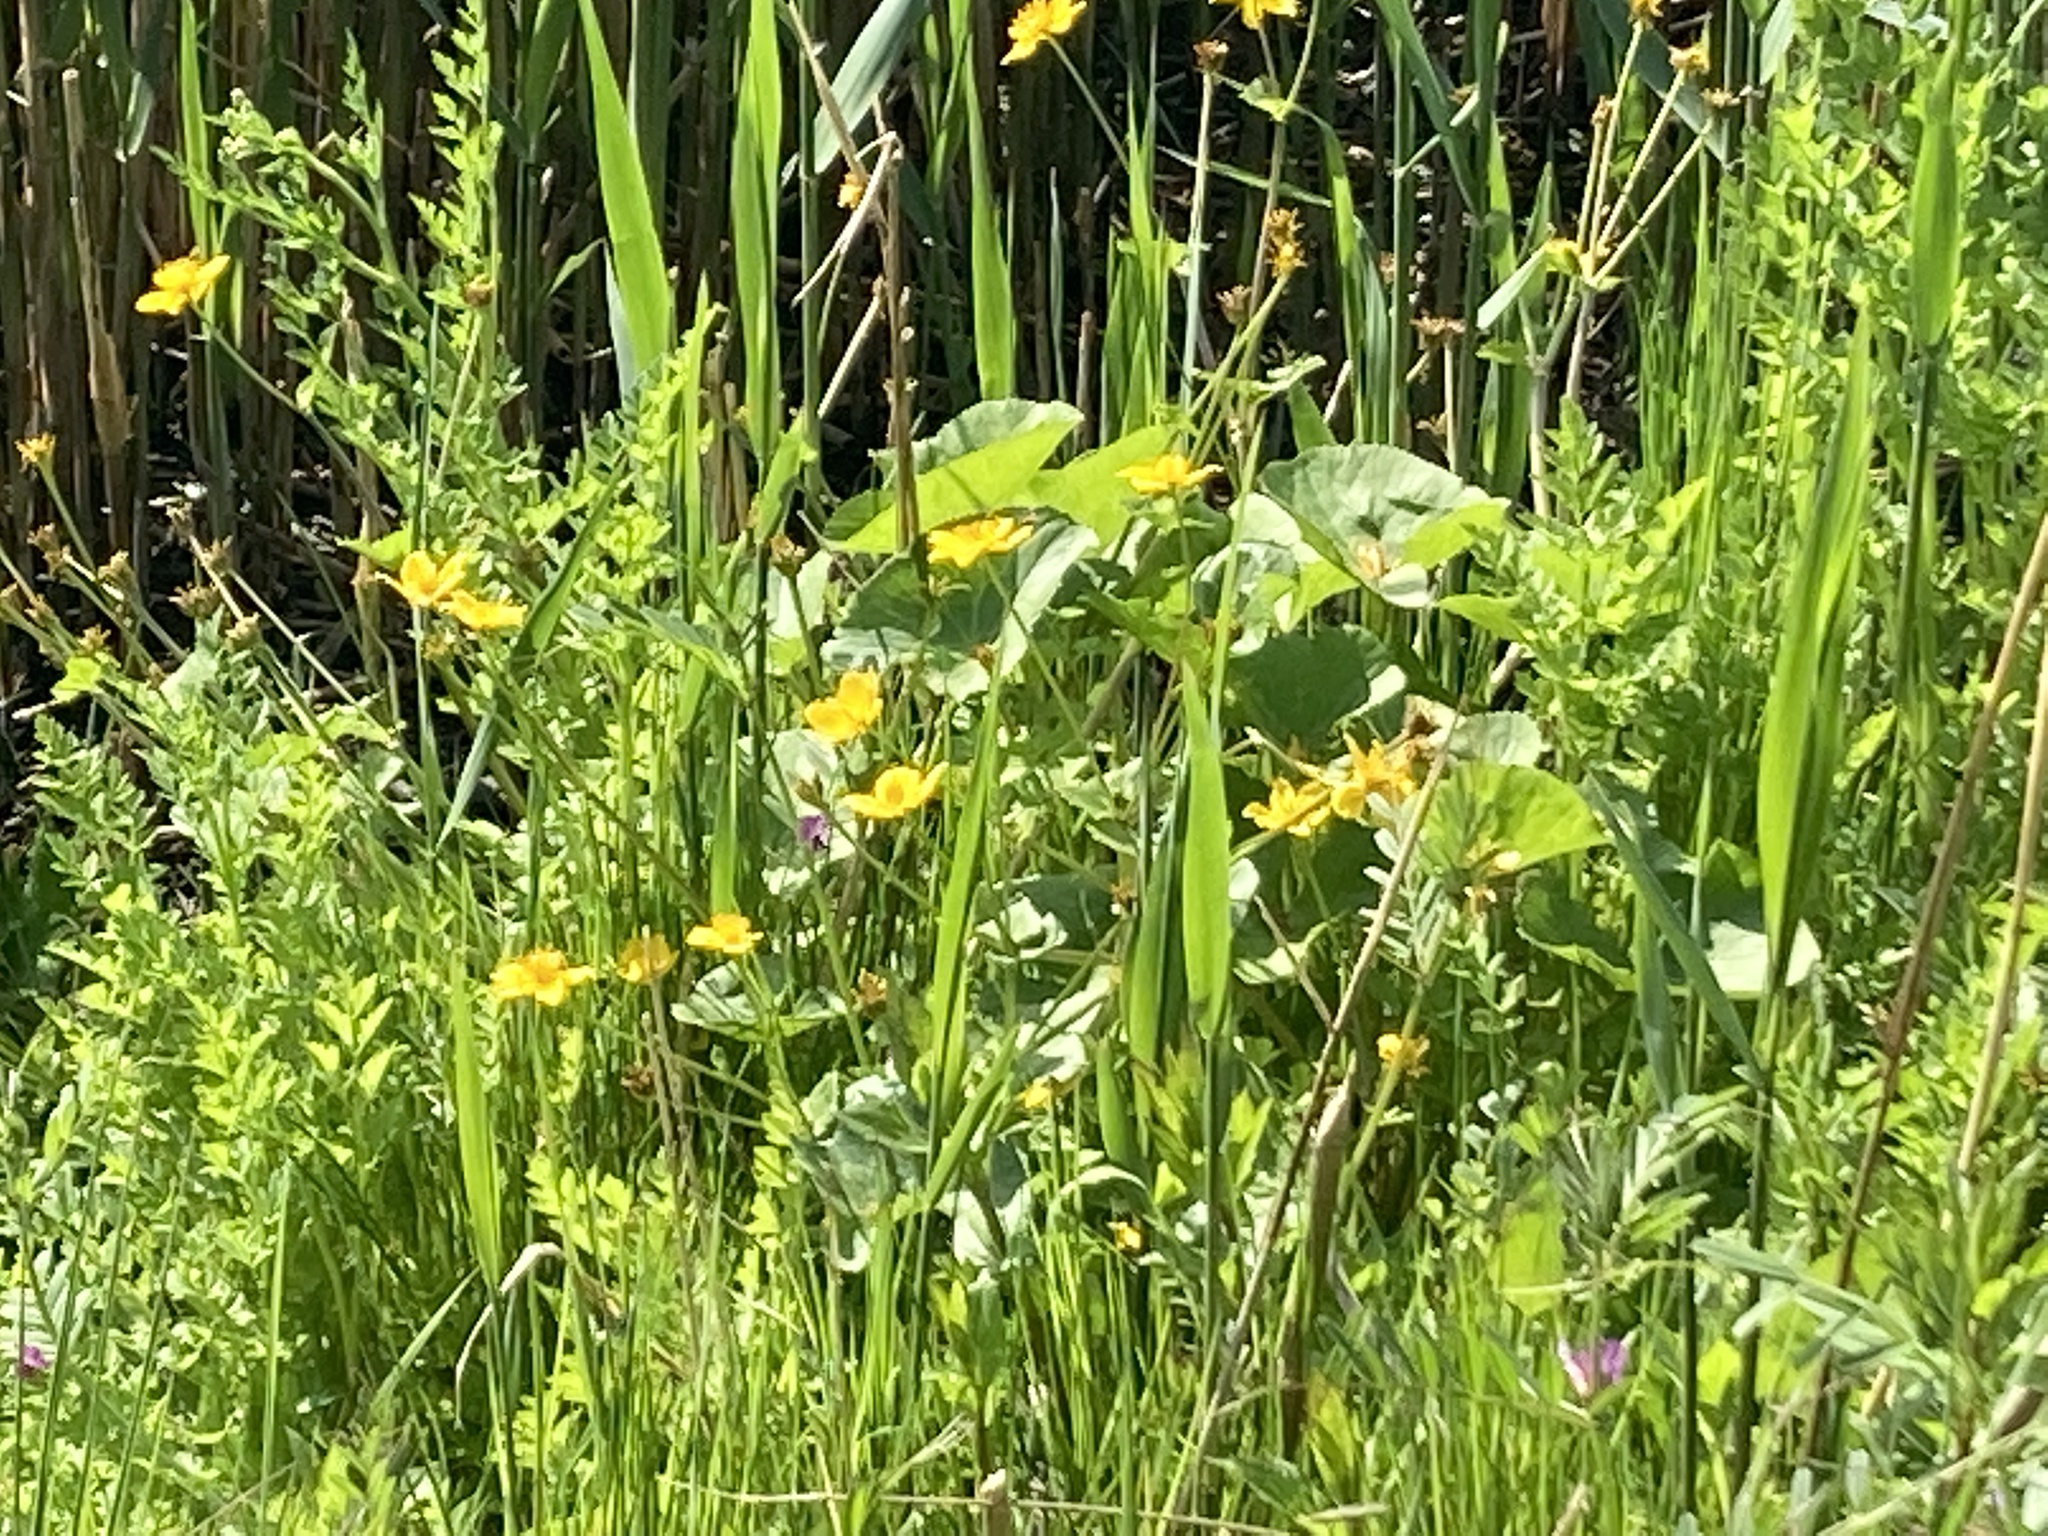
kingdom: Plantae
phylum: Tracheophyta
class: Magnoliopsida
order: Ranunculales
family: Ranunculaceae
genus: Caltha
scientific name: Caltha palustris
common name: Marsh marigold
